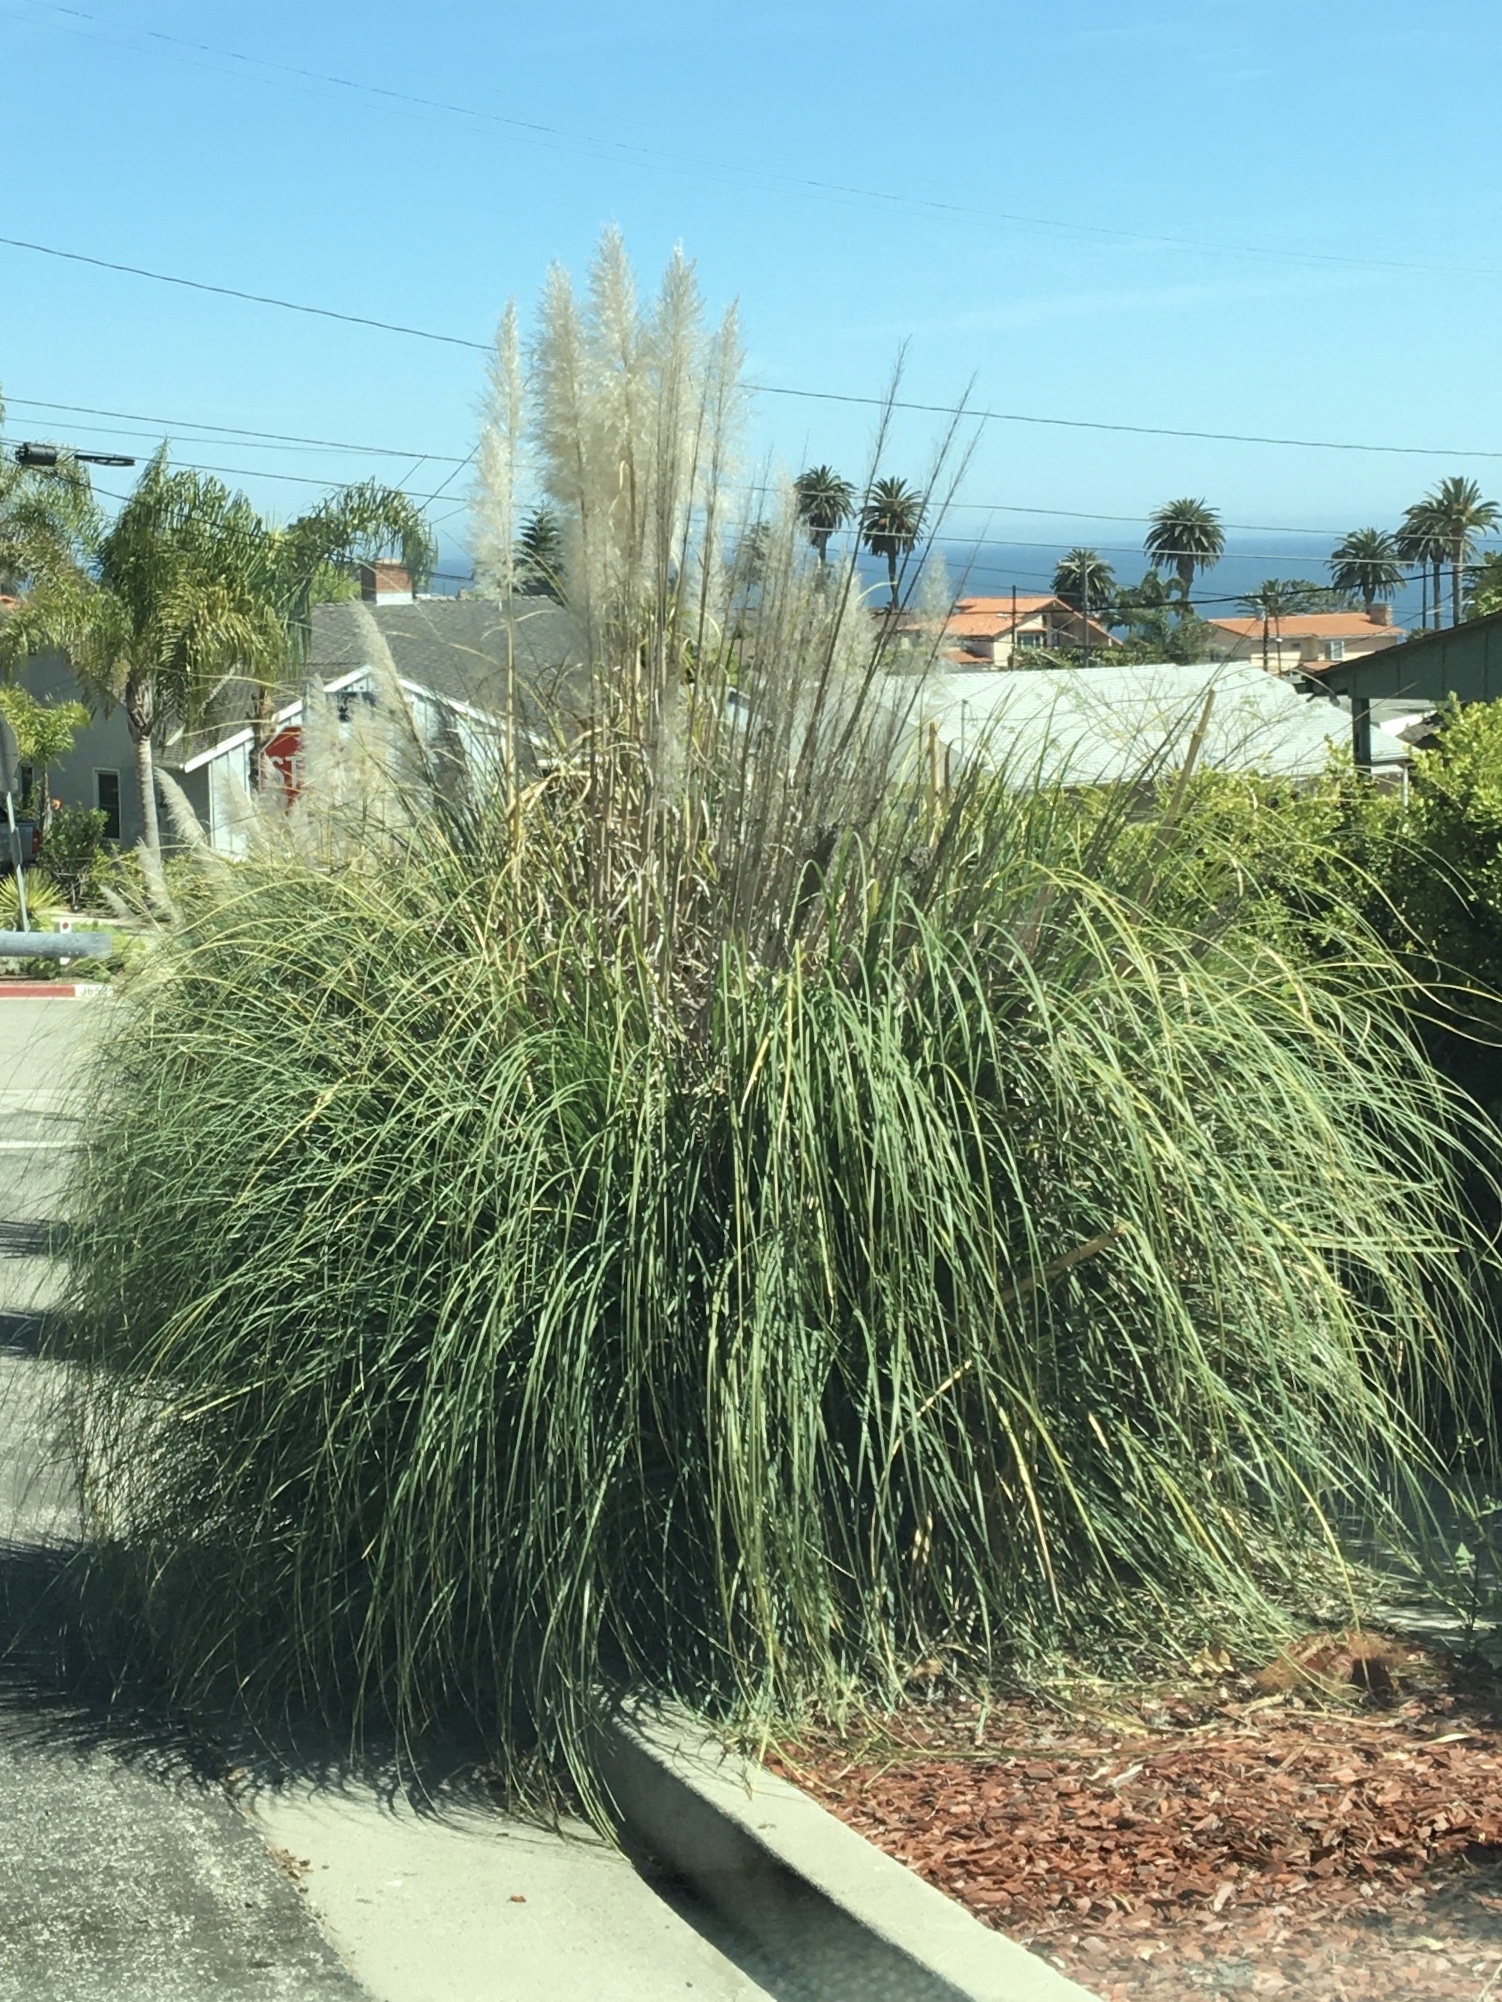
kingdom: Plantae
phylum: Tracheophyta
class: Liliopsida
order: Poales
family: Poaceae
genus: Cortaderia
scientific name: Cortaderia selloana
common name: Uruguayan pampas grass
